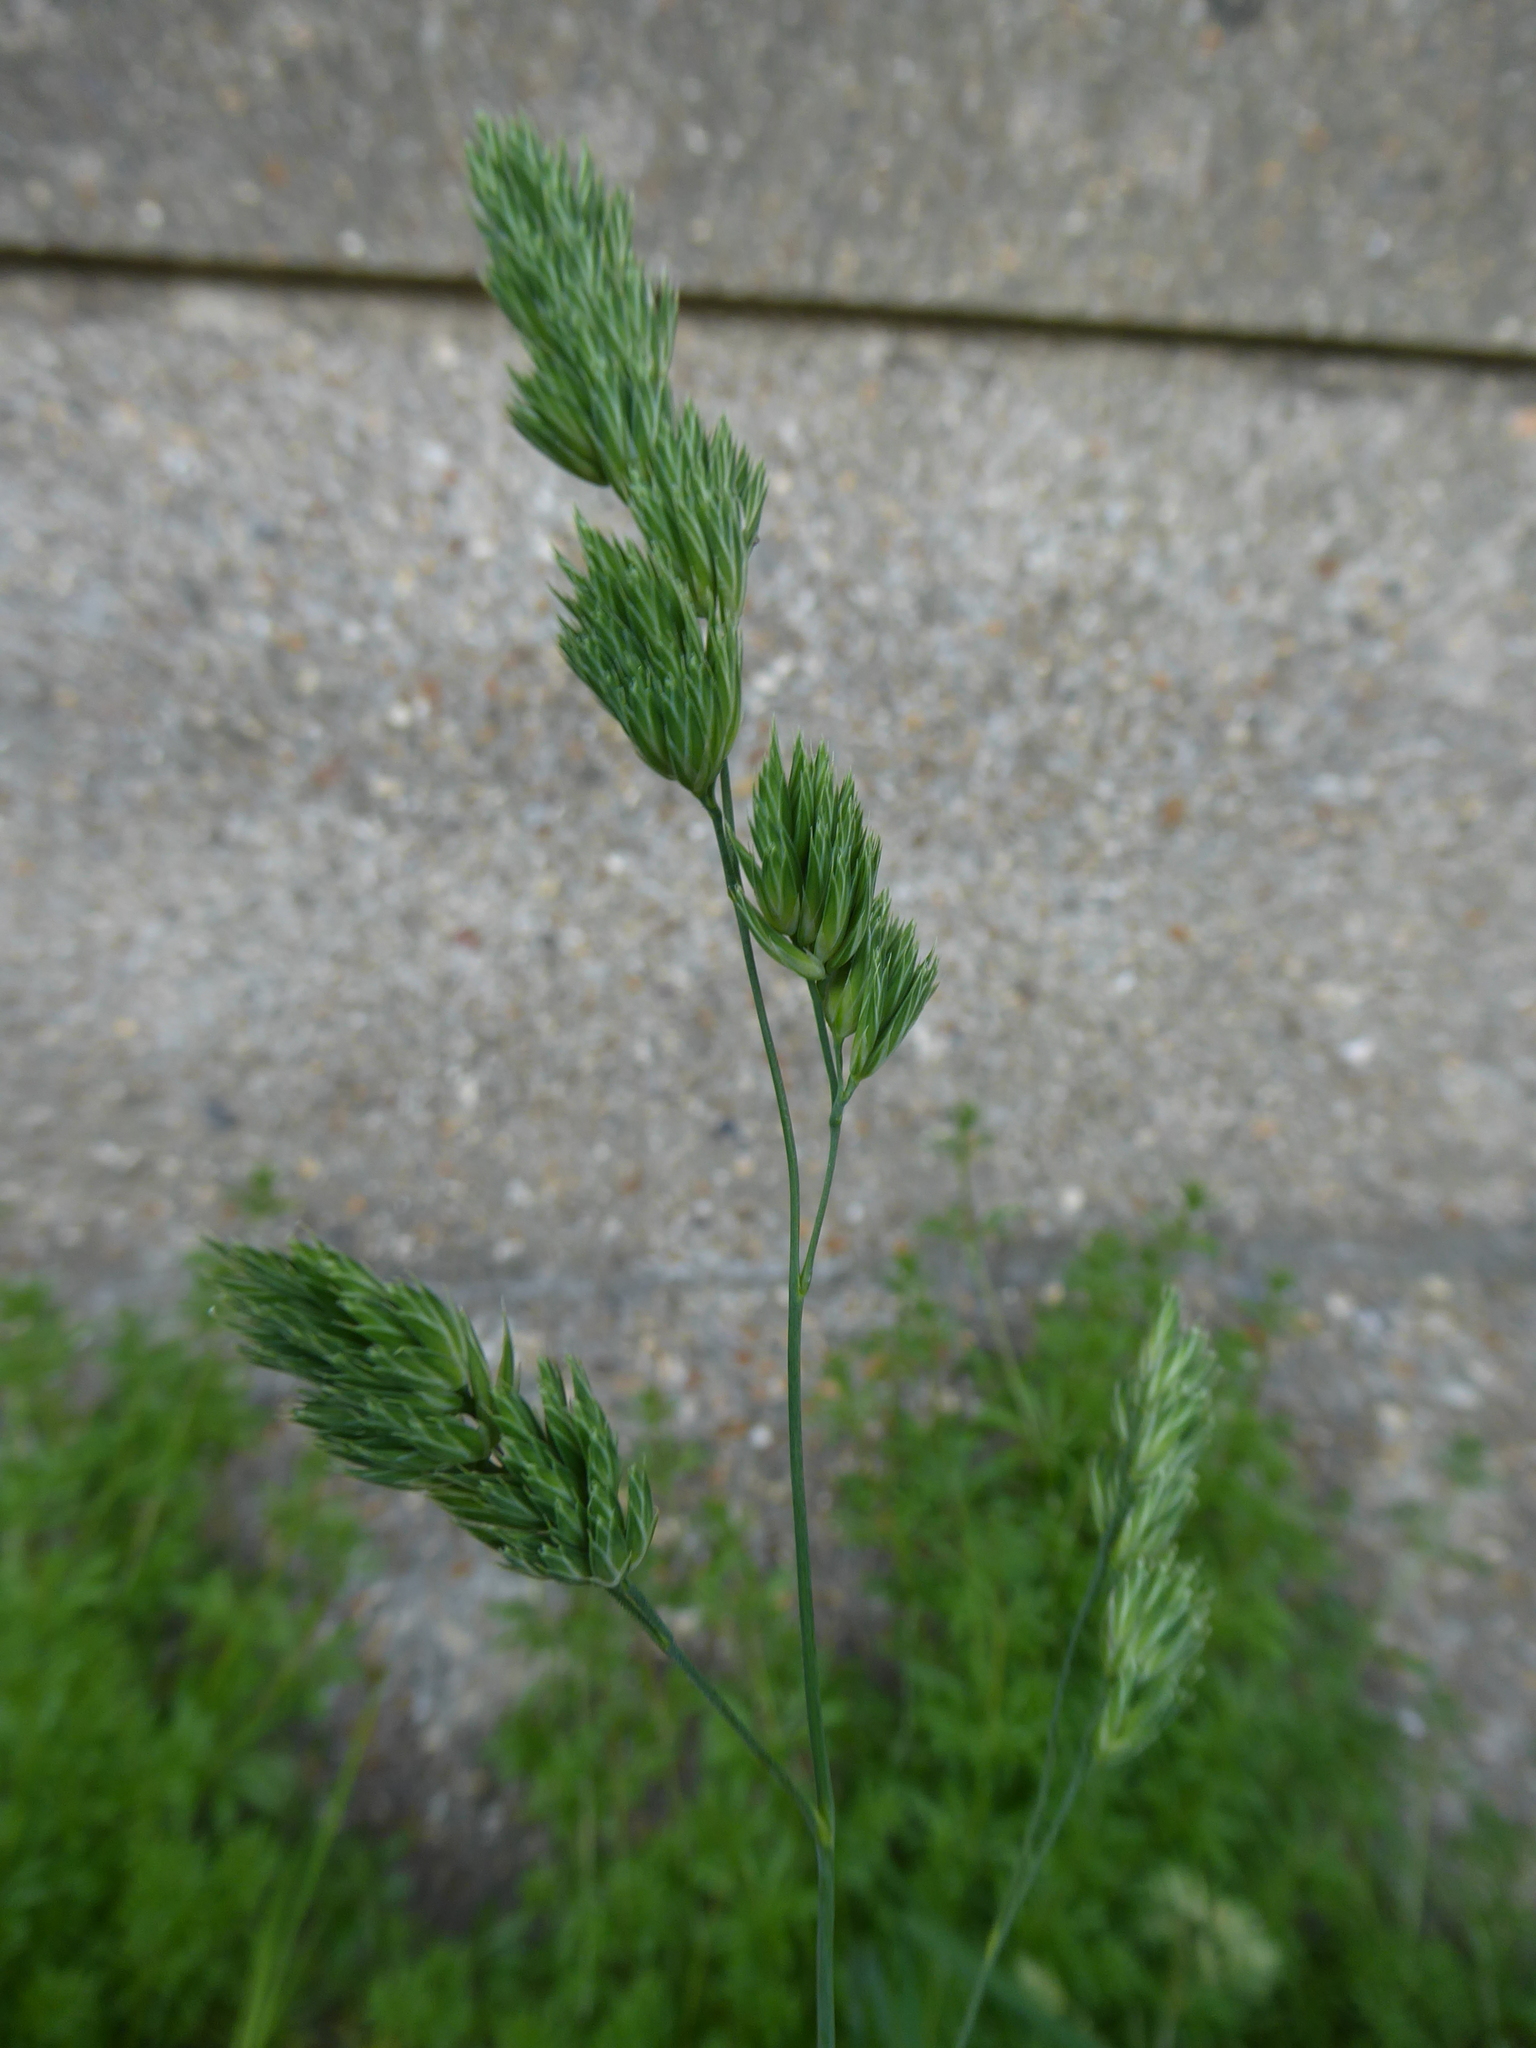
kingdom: Plantae
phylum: Tracheophyta
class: Liliopsida
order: Poales
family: Poaceae
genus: Dactylis
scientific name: Dactylis glomerata
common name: Orchardgrass
